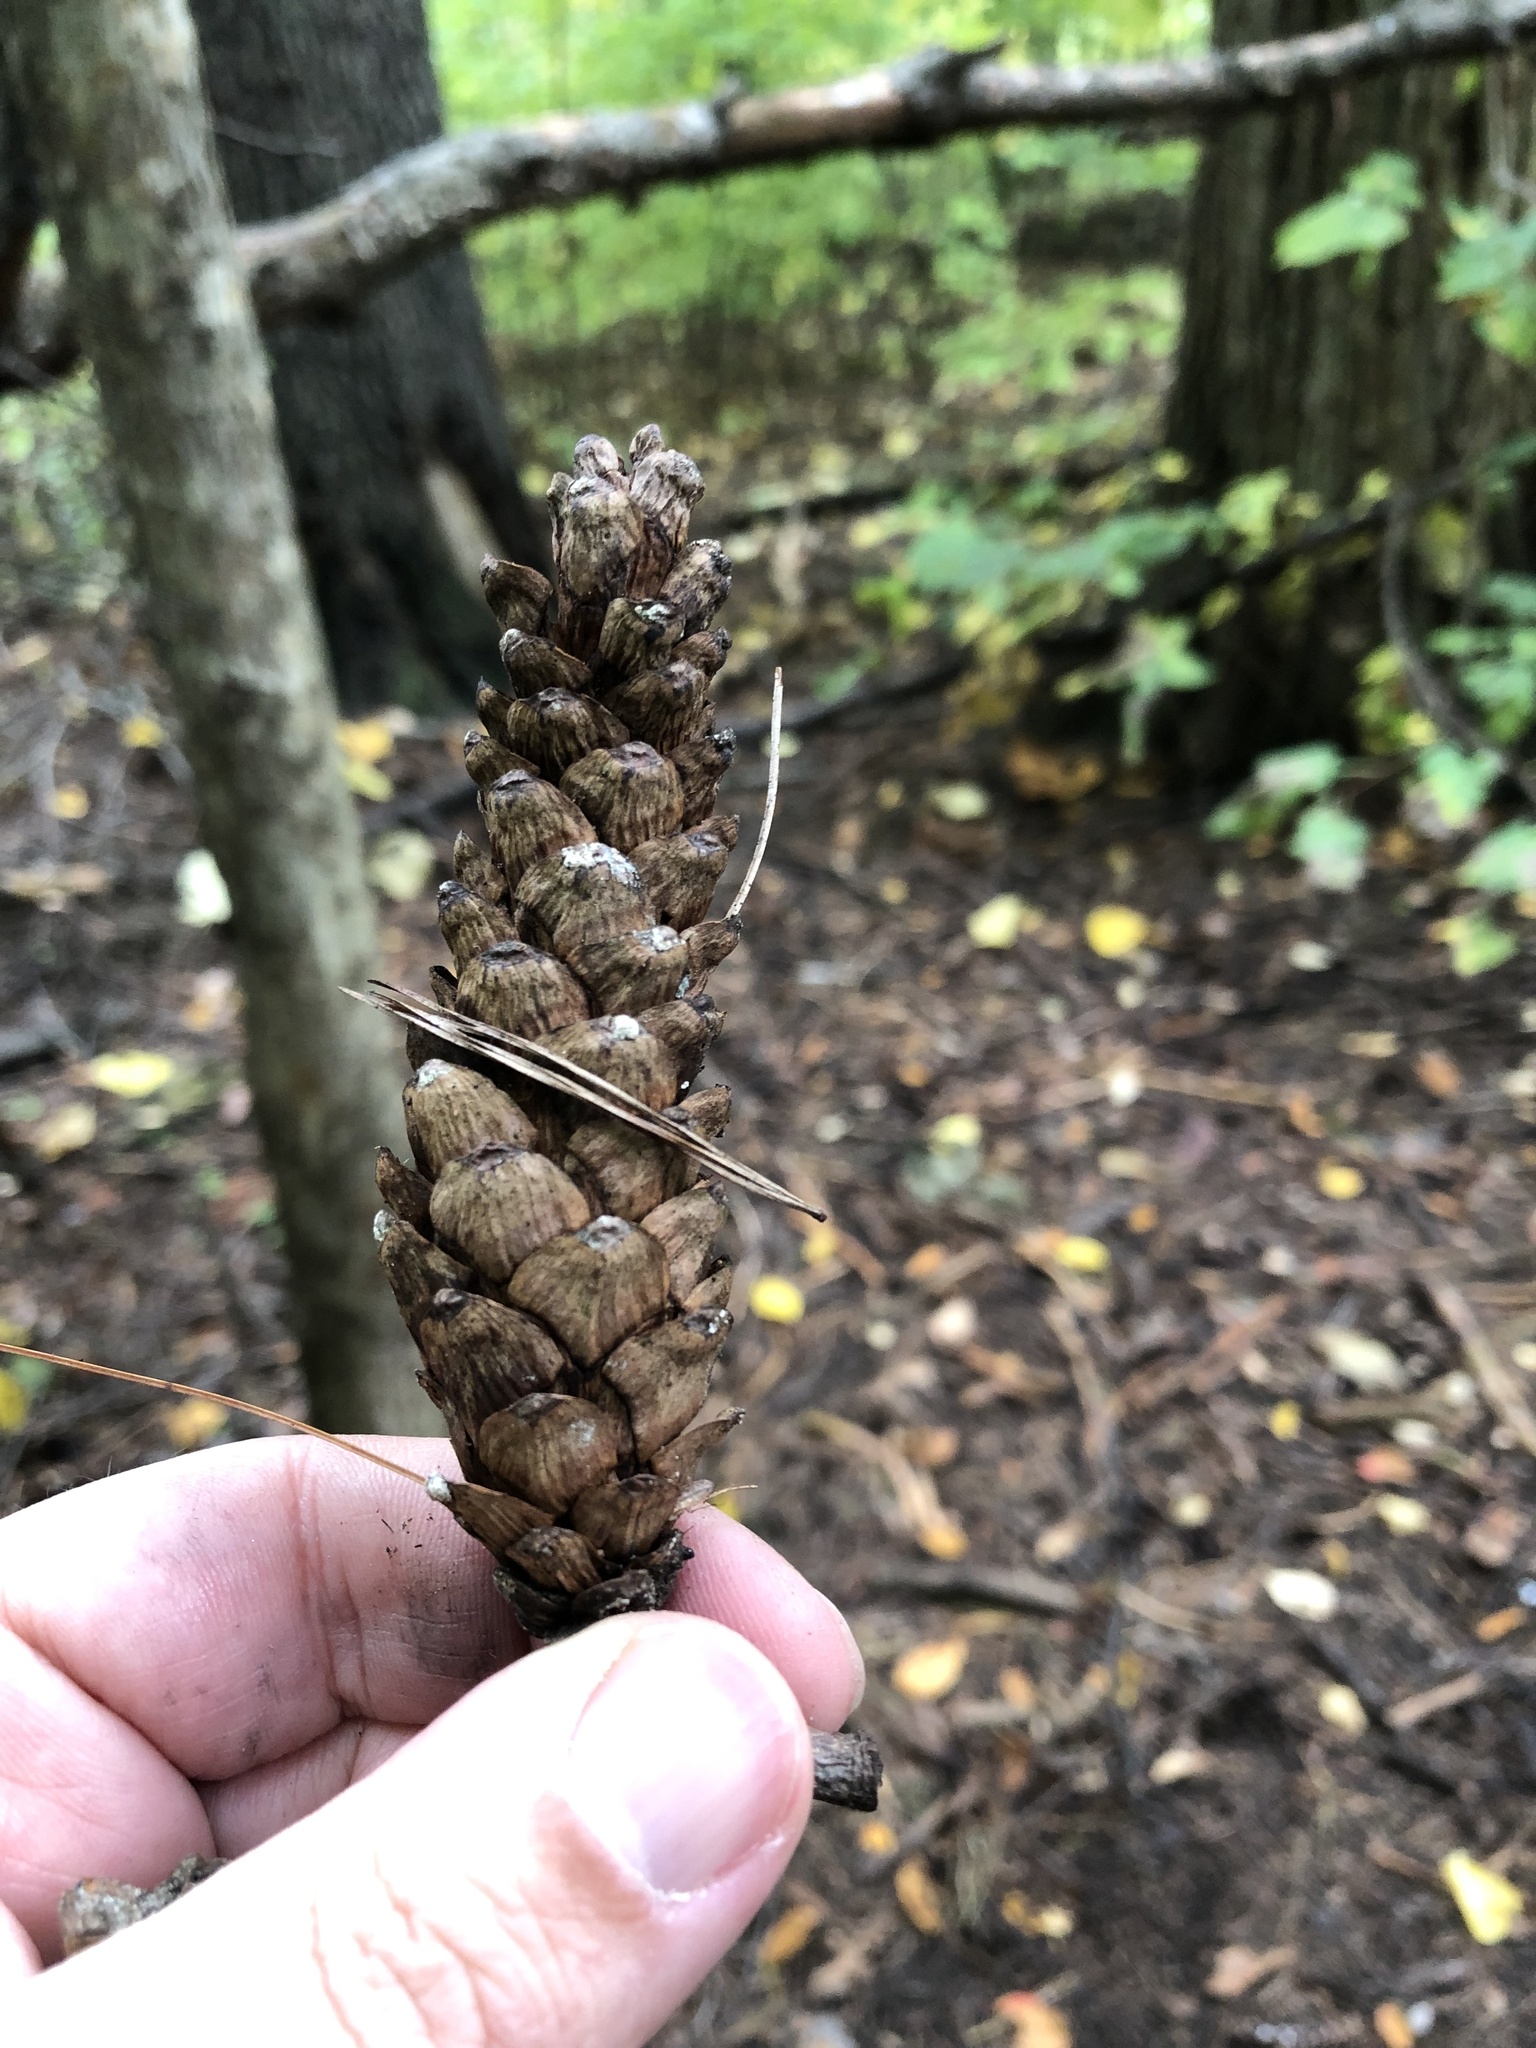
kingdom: Plantae
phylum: Tracheophyta
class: Pinopsida
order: Pinales
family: Pinaceae
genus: Pinus
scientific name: Pinus strobus
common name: Weymouth pine
